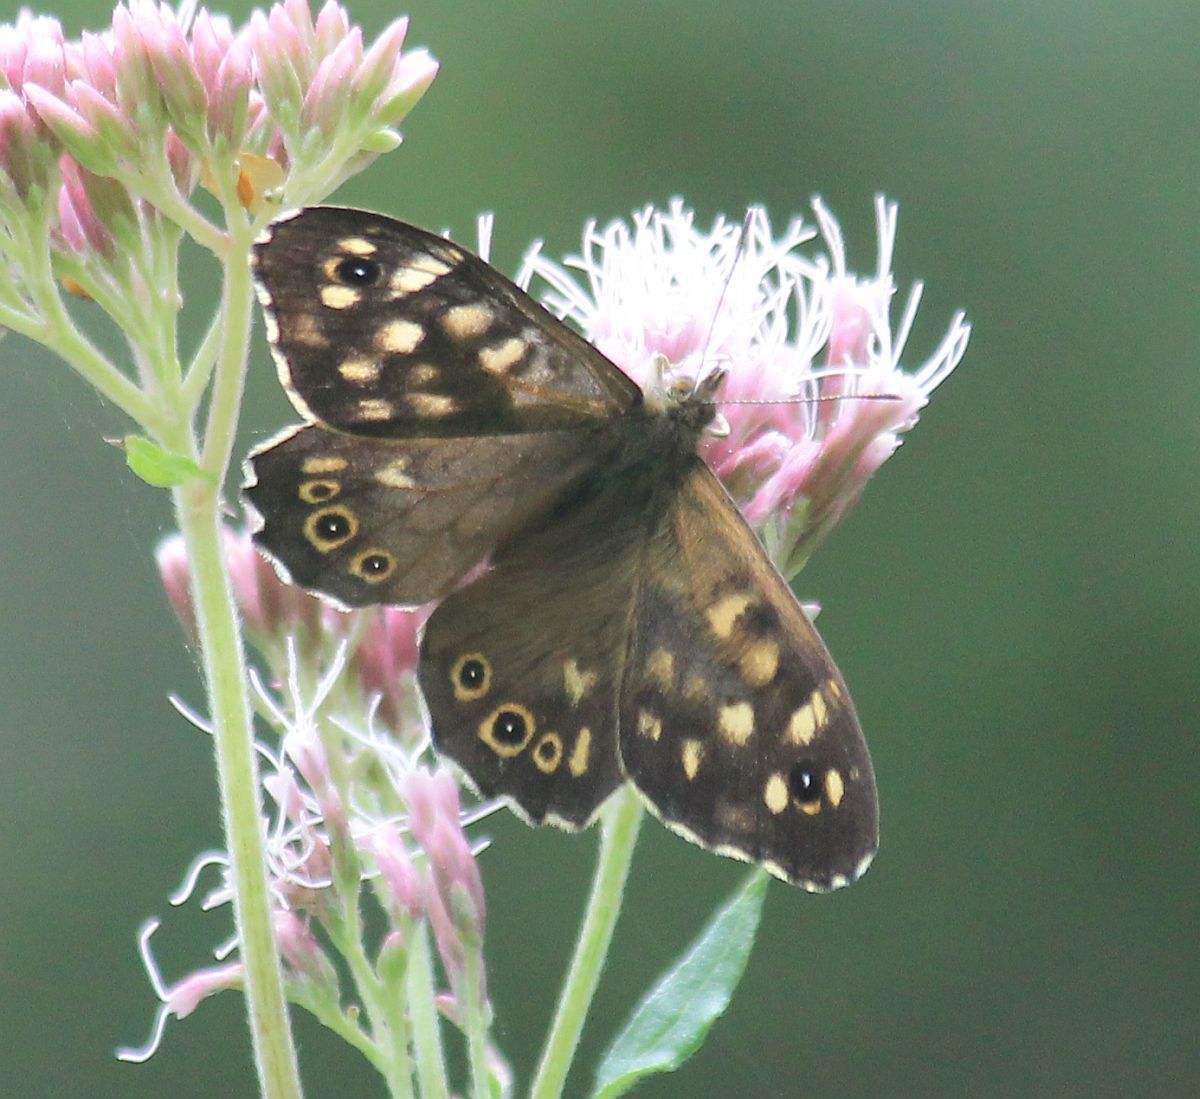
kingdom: Animalia
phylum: Arthropoda
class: Insecta
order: Lepidoptera
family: Nymphalidae
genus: Pararge
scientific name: Pararge aegeria
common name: Speckled wood
